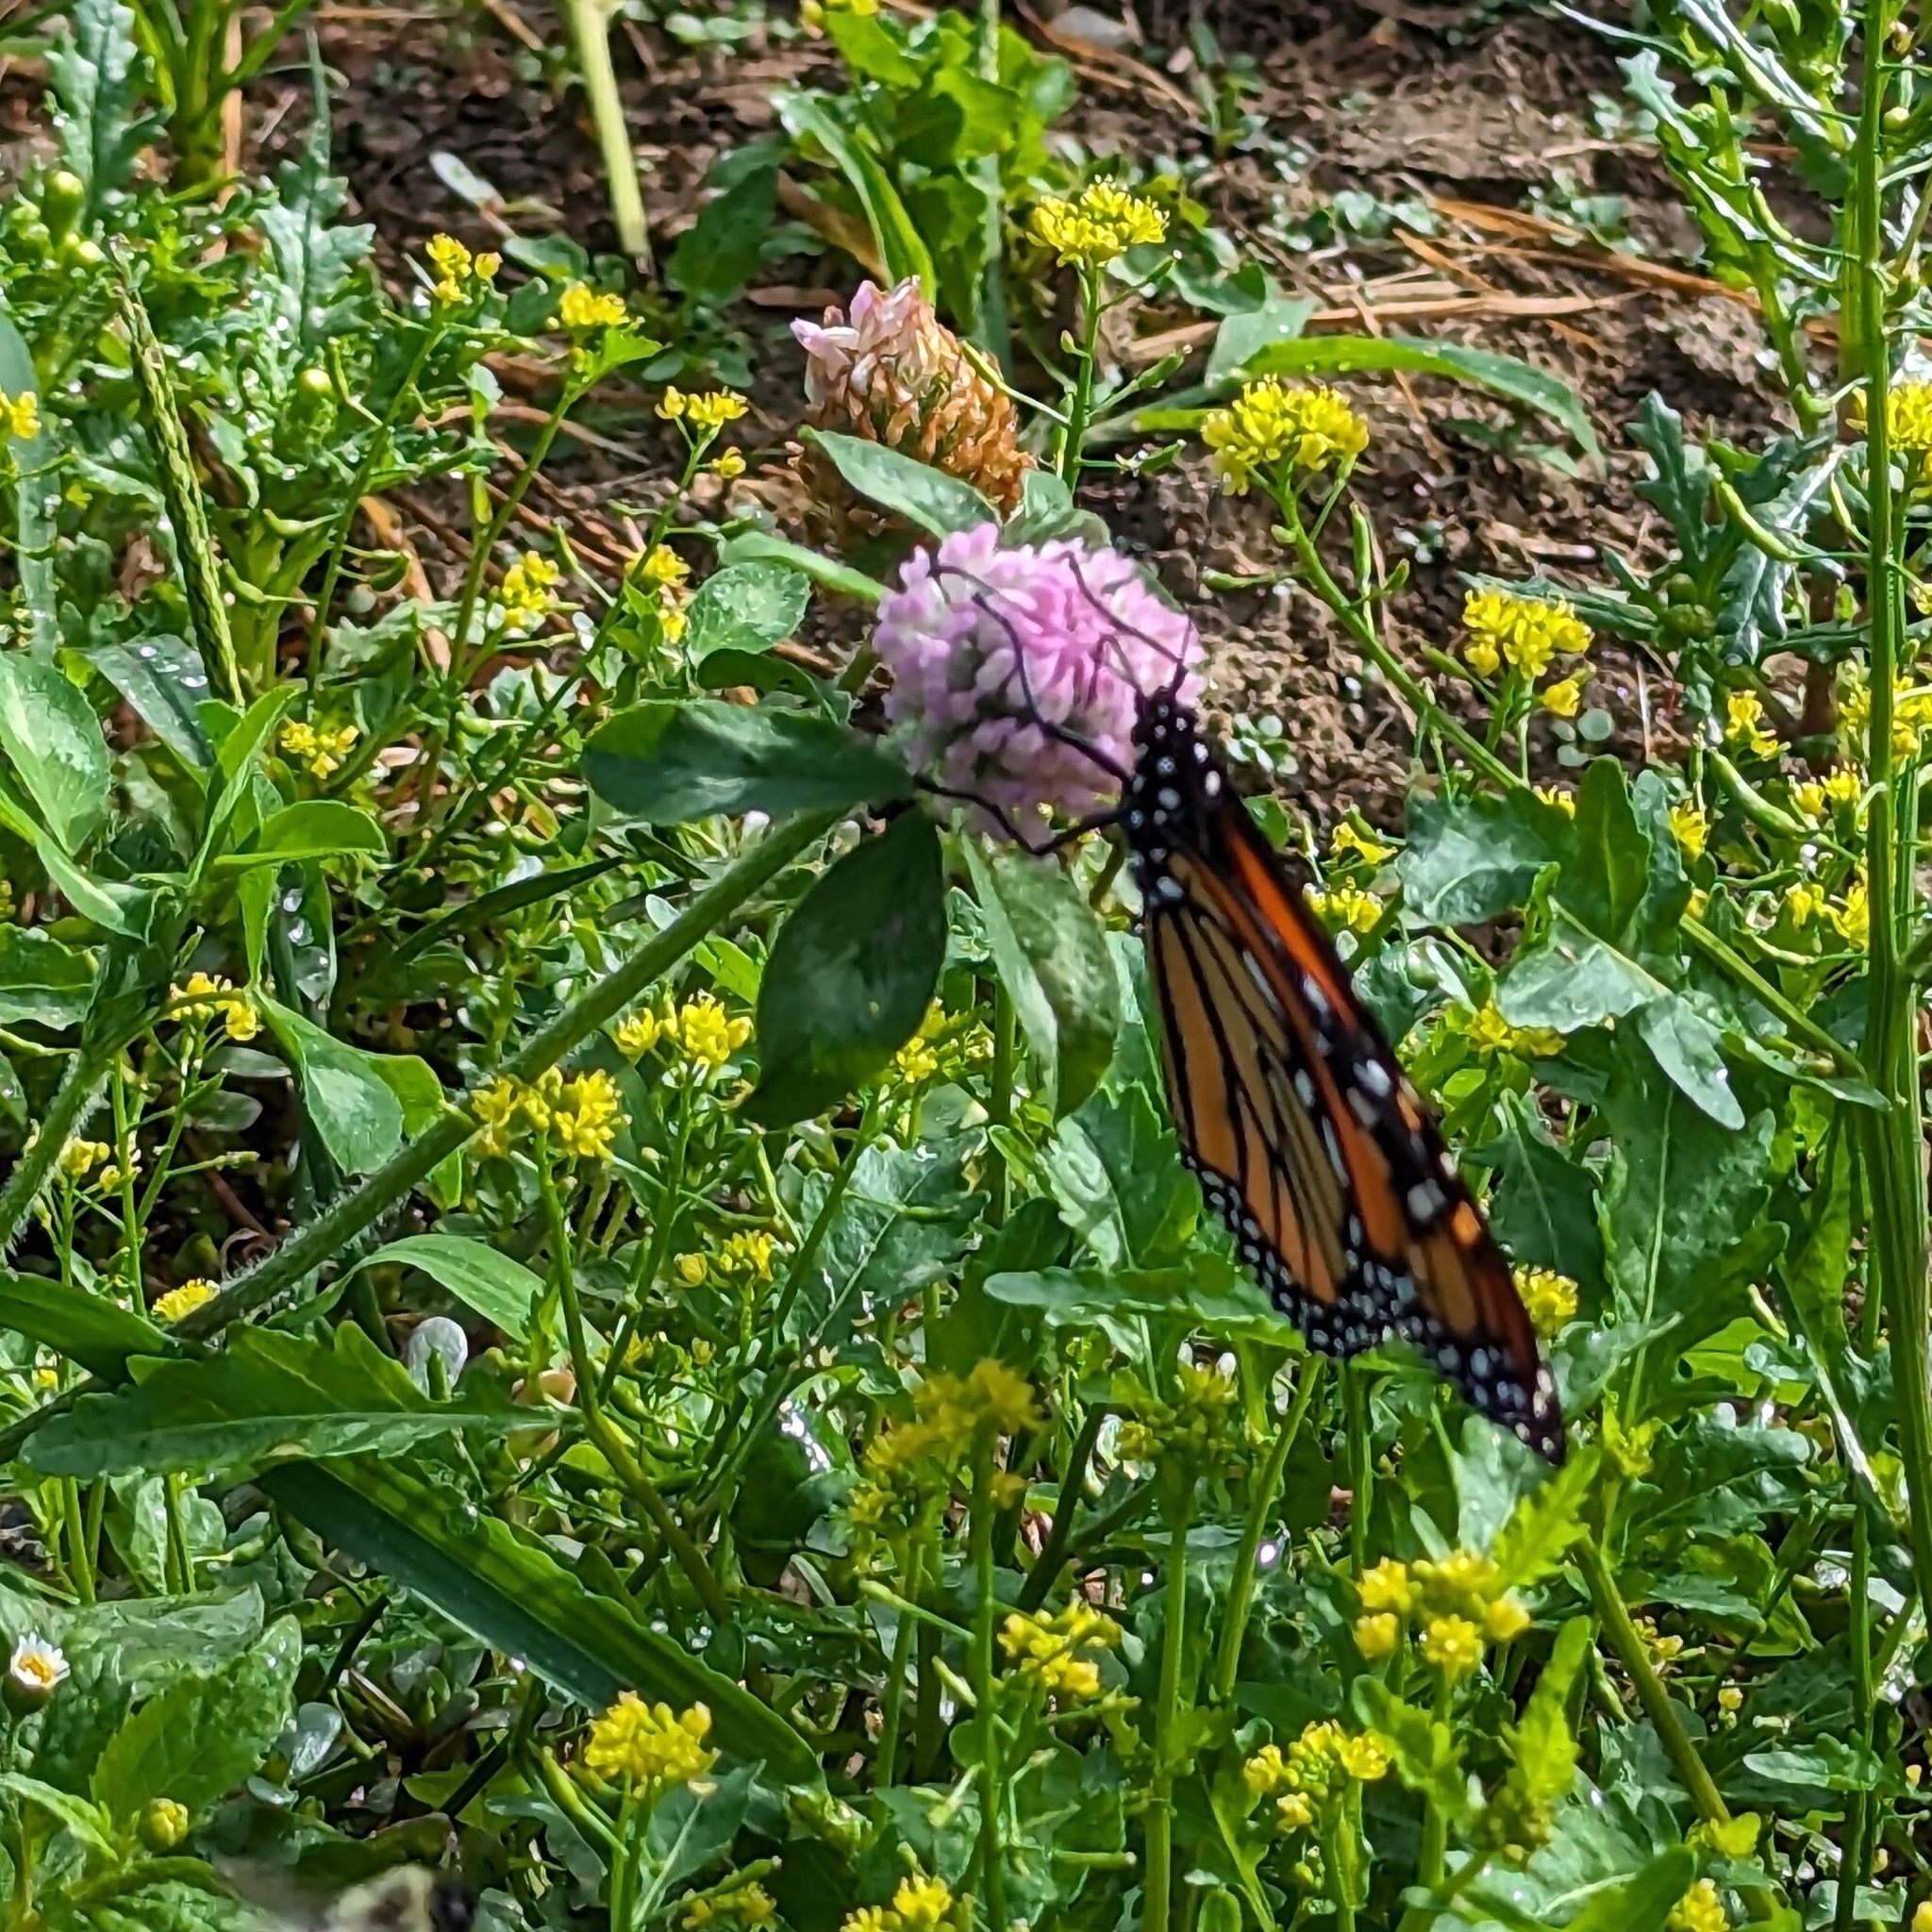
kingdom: Plantae
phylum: Tracheophyta
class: Magnoliopsida
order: Fabales
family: Fabaceae
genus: Trifolium
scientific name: Trifolium pratense
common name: Red clover
